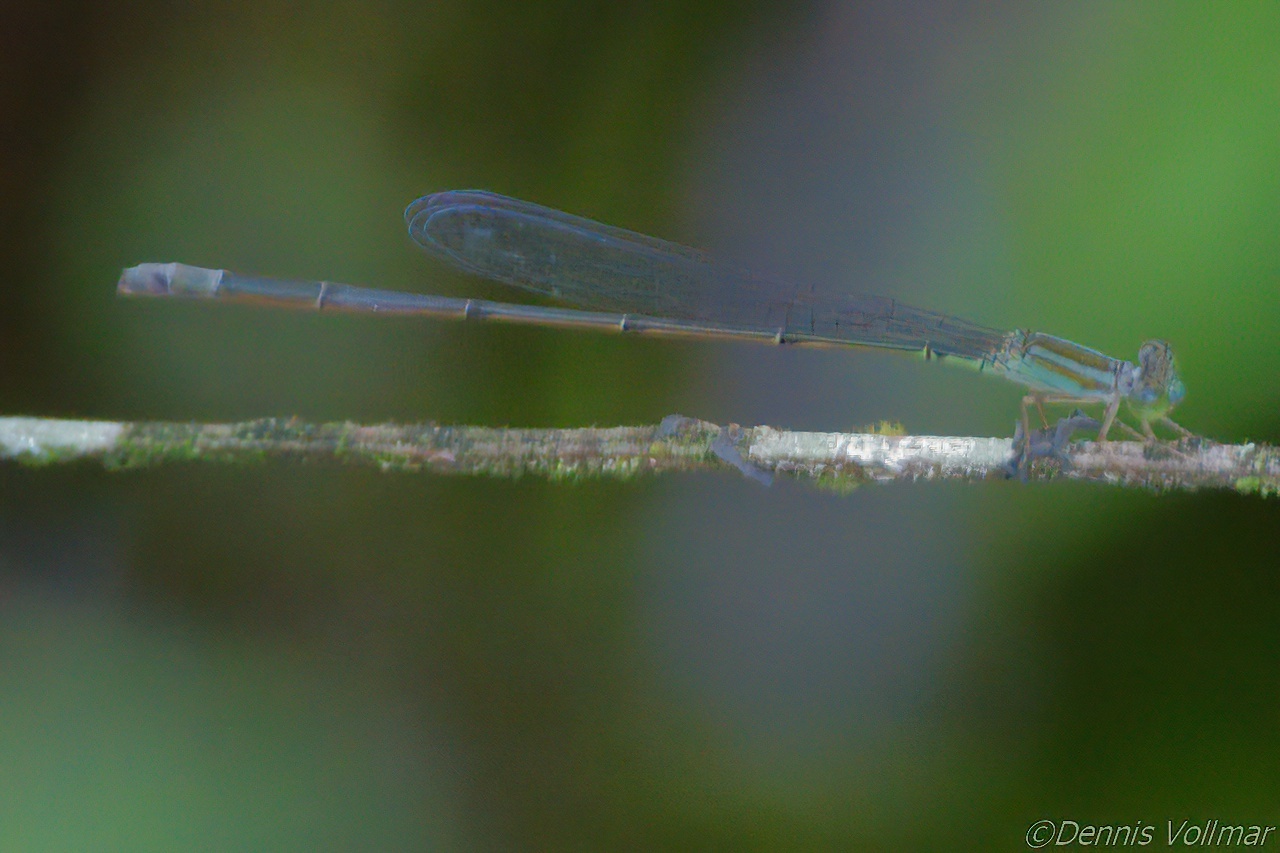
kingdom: Animalia
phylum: Arthropoda
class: Insecta
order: Odonata
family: Coenagrionidae
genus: Leptobasis
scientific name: Leptobasis lucifer
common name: Lucifer swampdamsel
